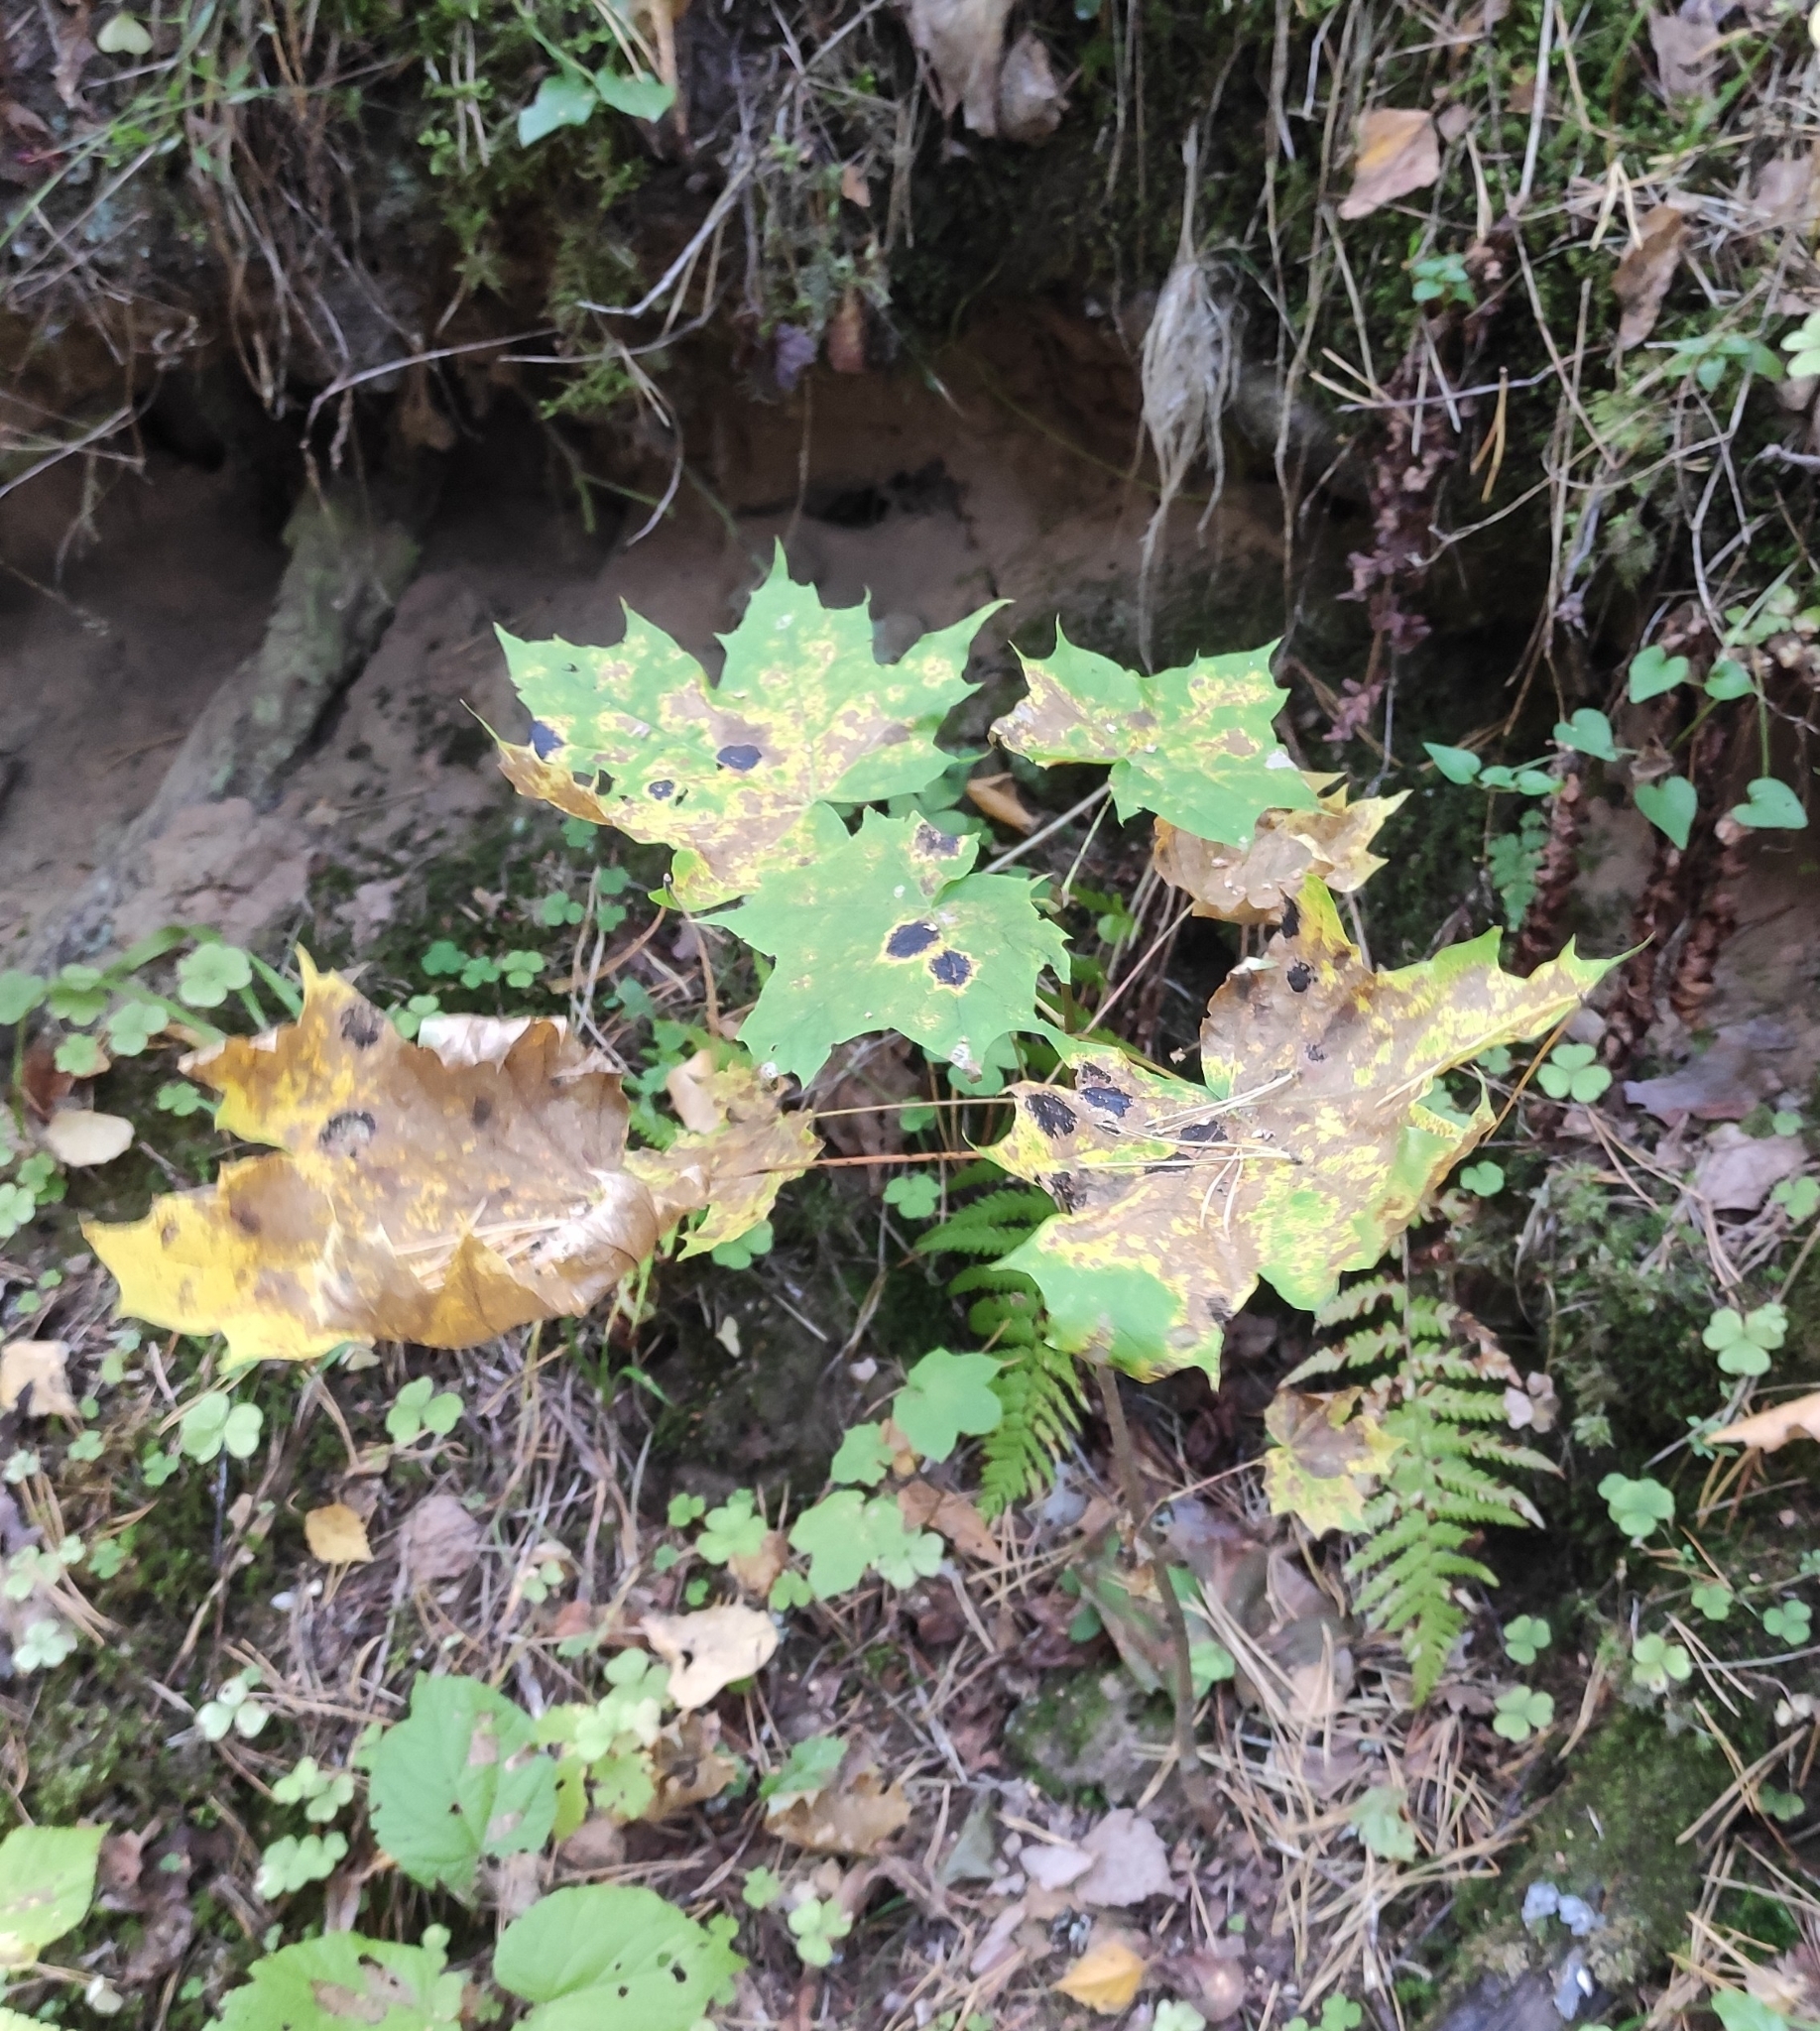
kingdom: Plantae
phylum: Tracheophyta
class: Magnoliopsida
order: Sapindales
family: Sapindaceae
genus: Acer
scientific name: Acer platanoides
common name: Norway maple
